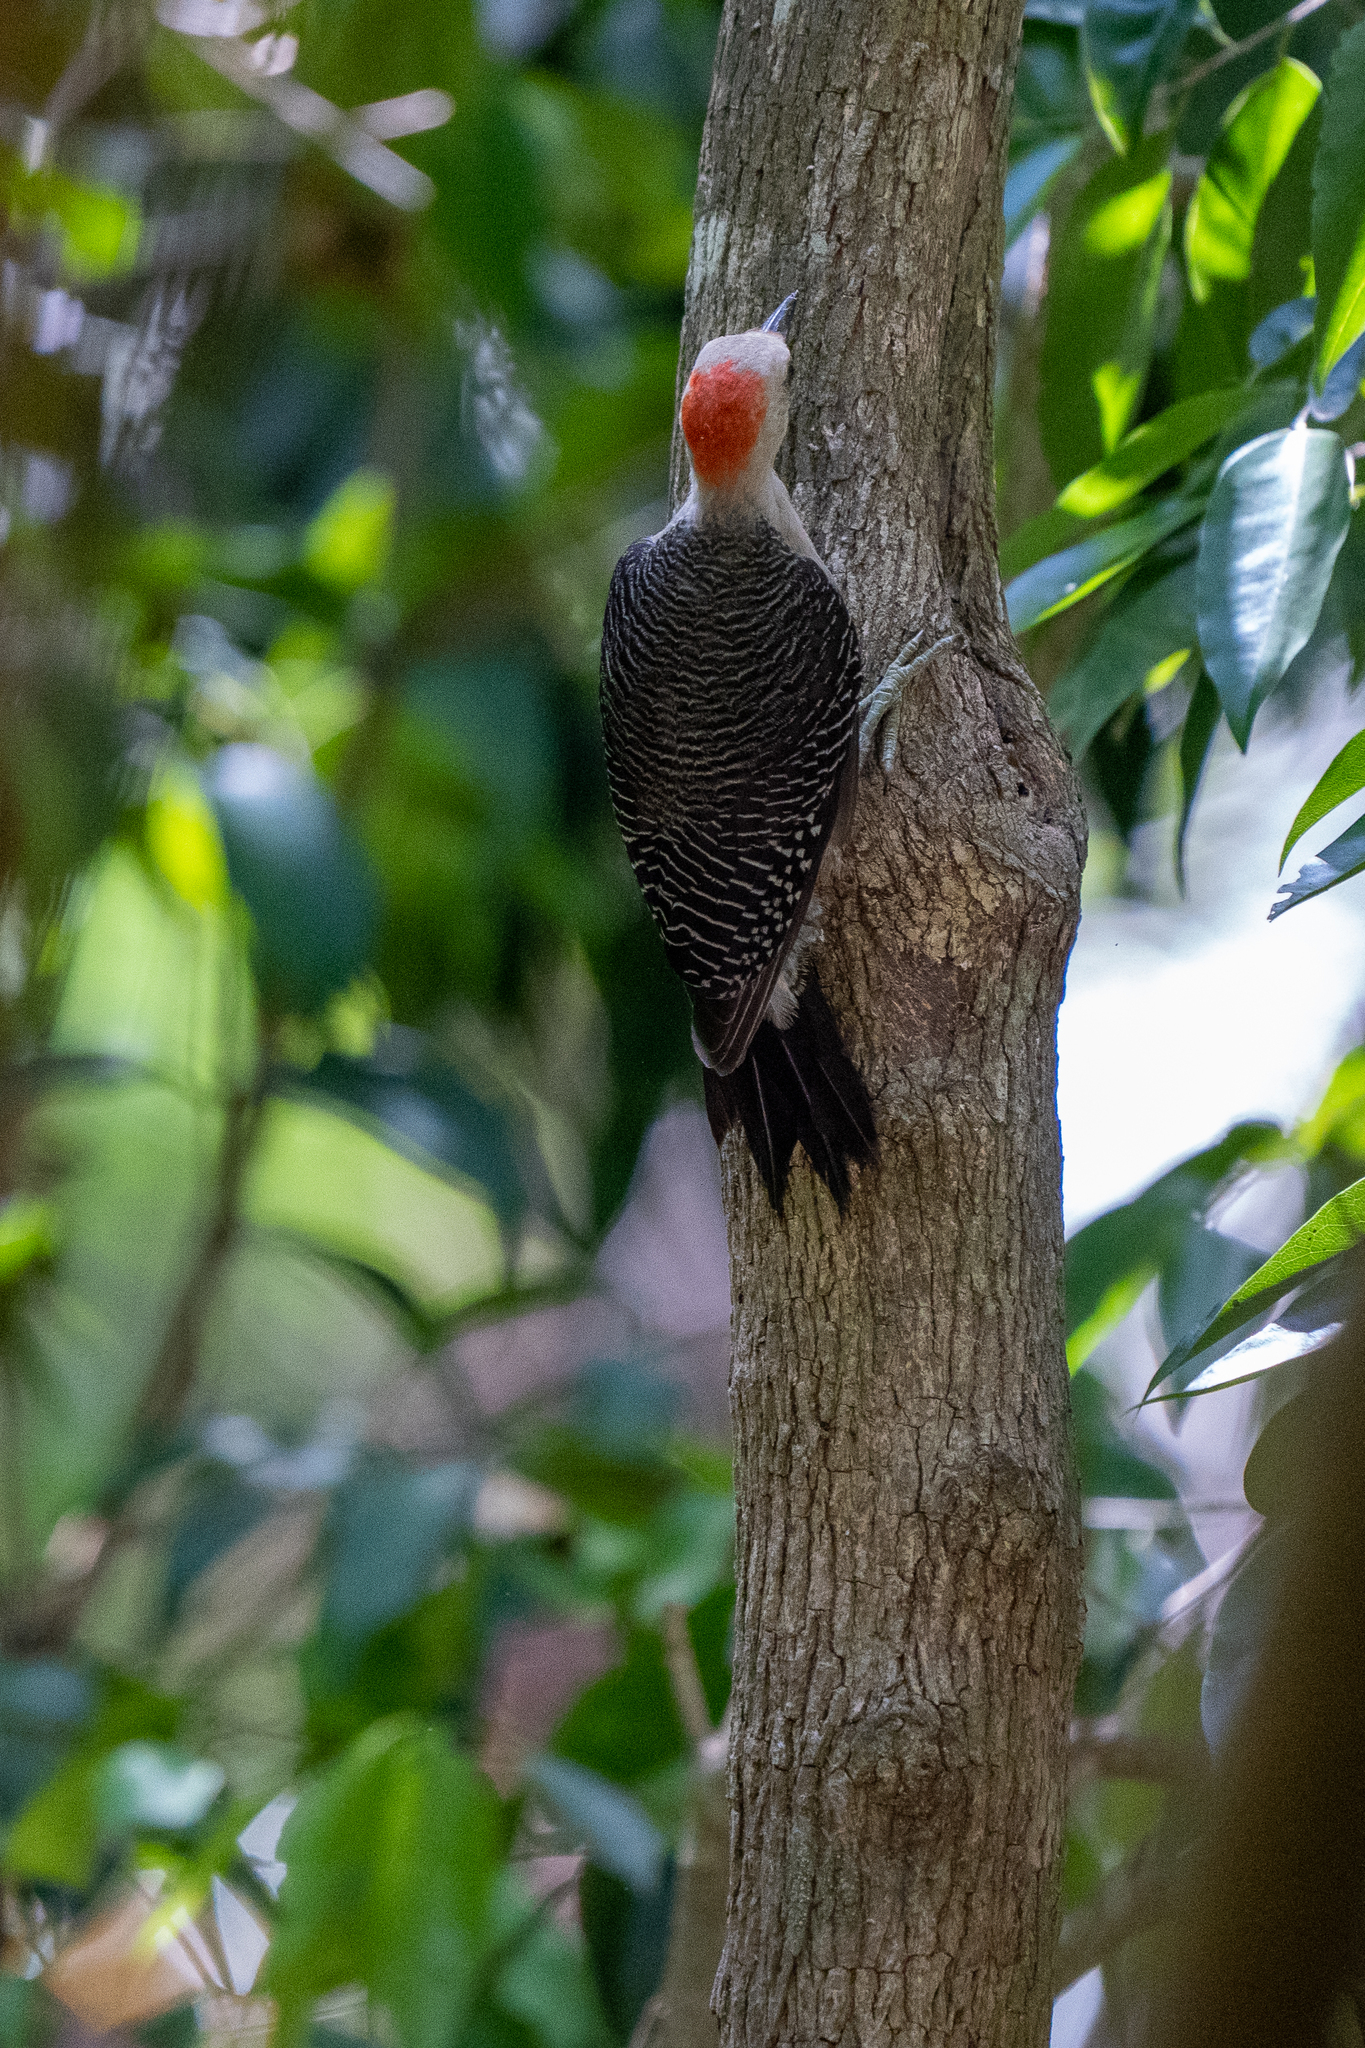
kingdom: Animalia
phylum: Chordata
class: Aves
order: Piciformes
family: Picidae
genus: Melanerpes
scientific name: Melanerpes aurifrons
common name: Golden-fronted woodpecker
